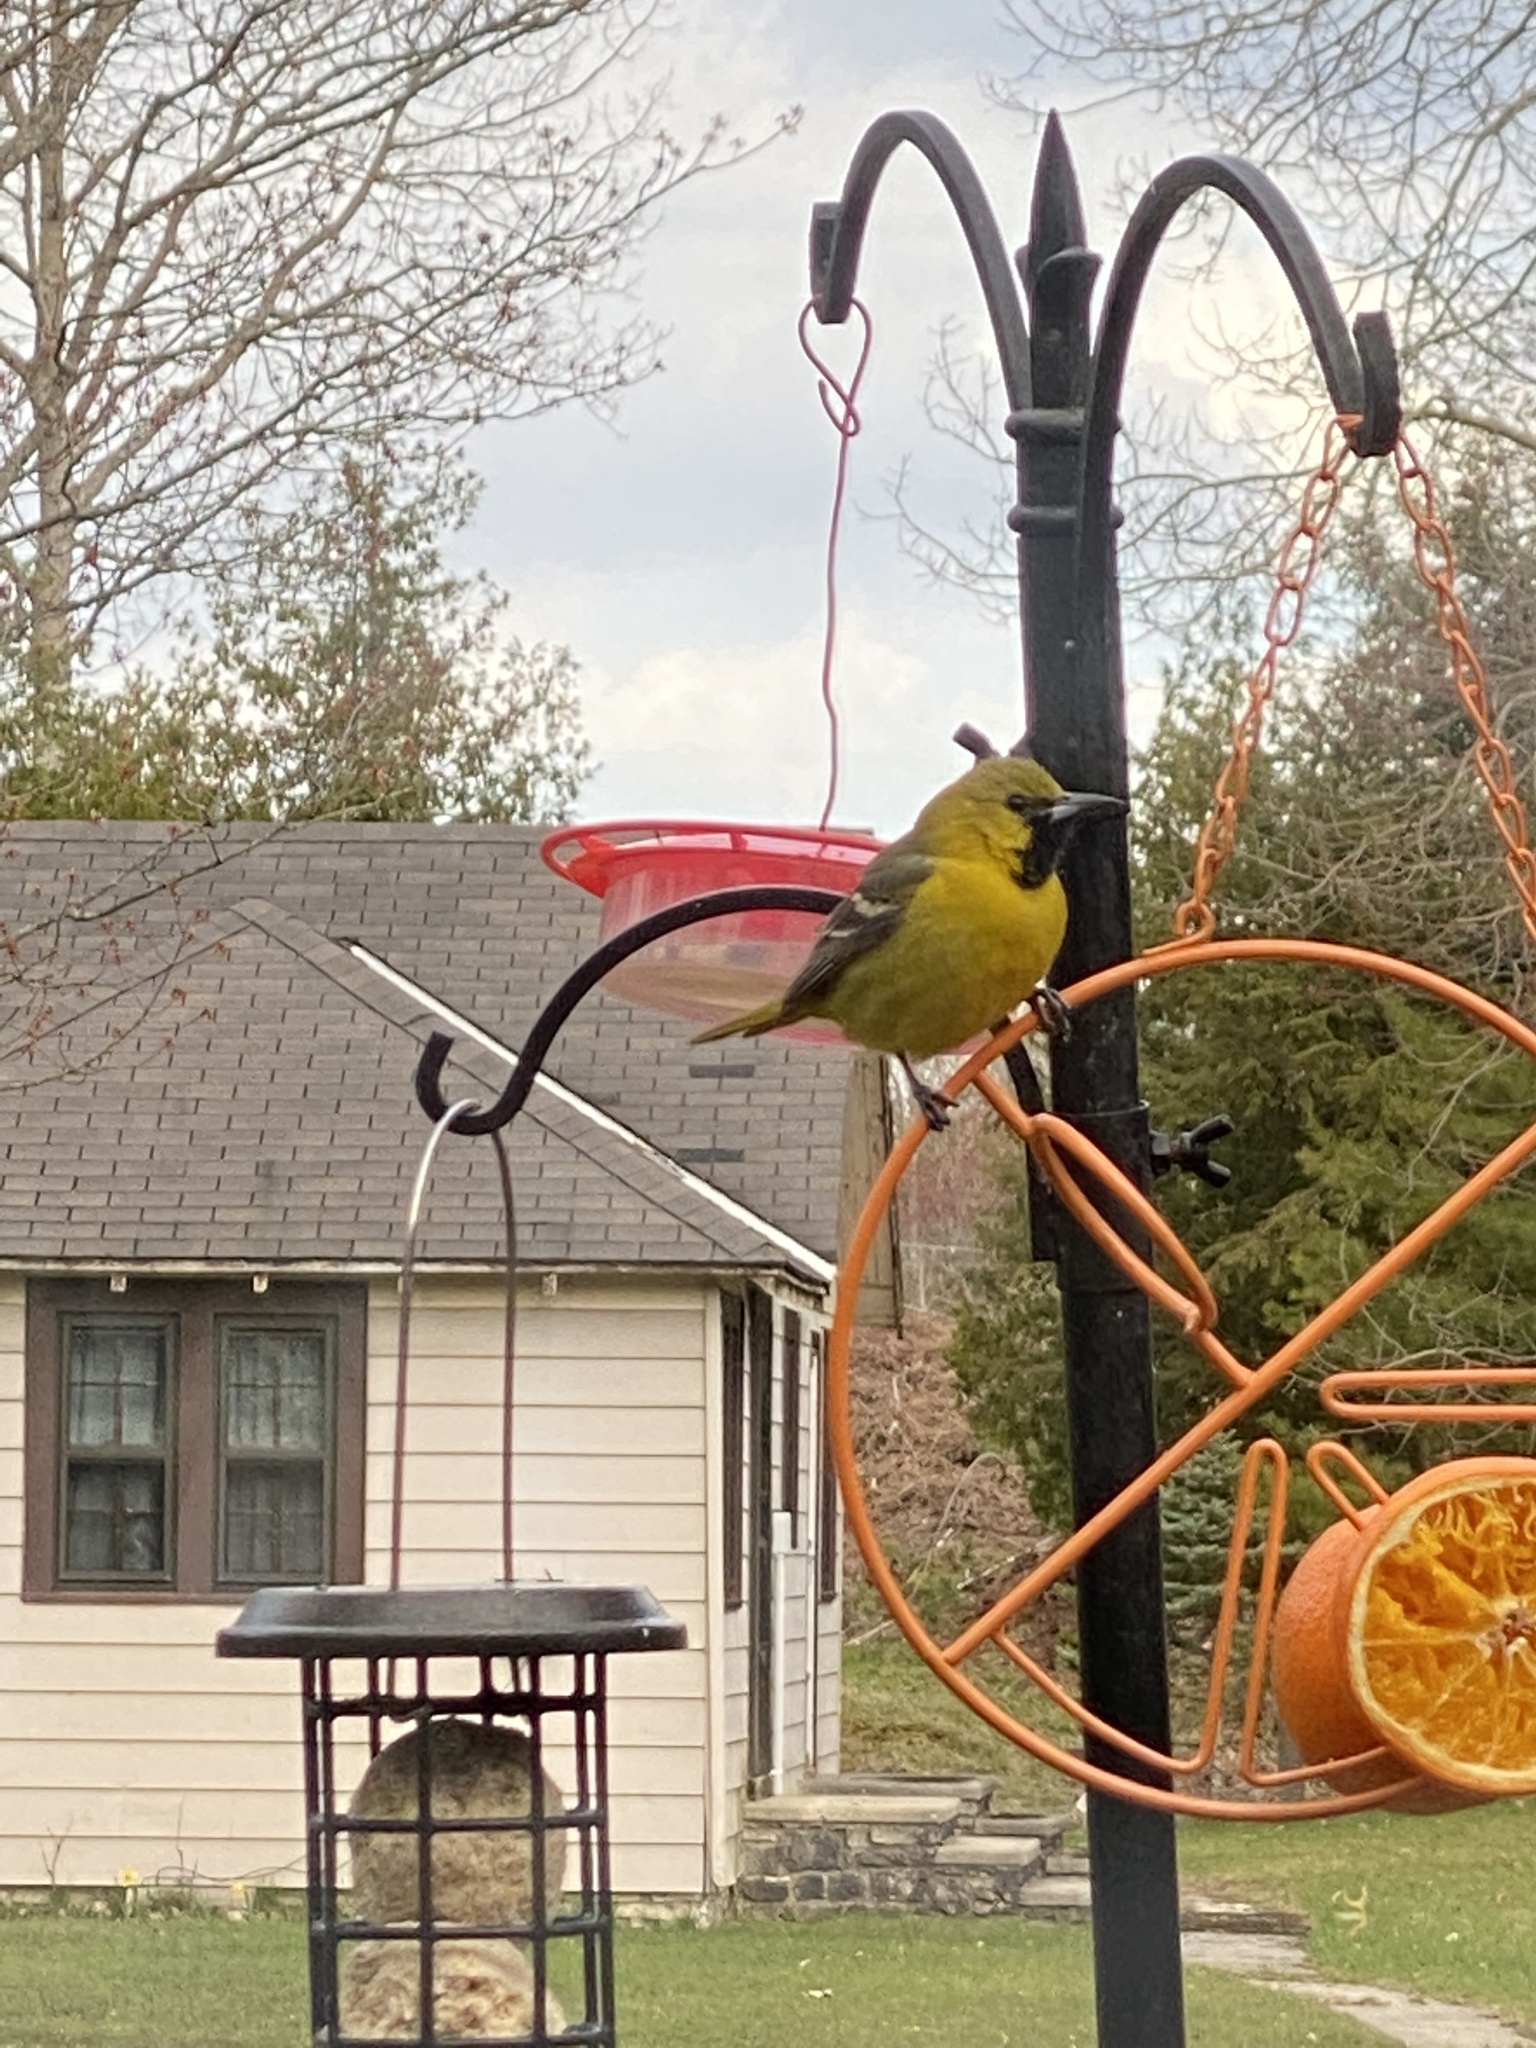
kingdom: Animalia
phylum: Chordata
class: Aves
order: Passeriformes
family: Icteridae
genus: Icterus
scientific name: Icterus spurius
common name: Orchard oriole
